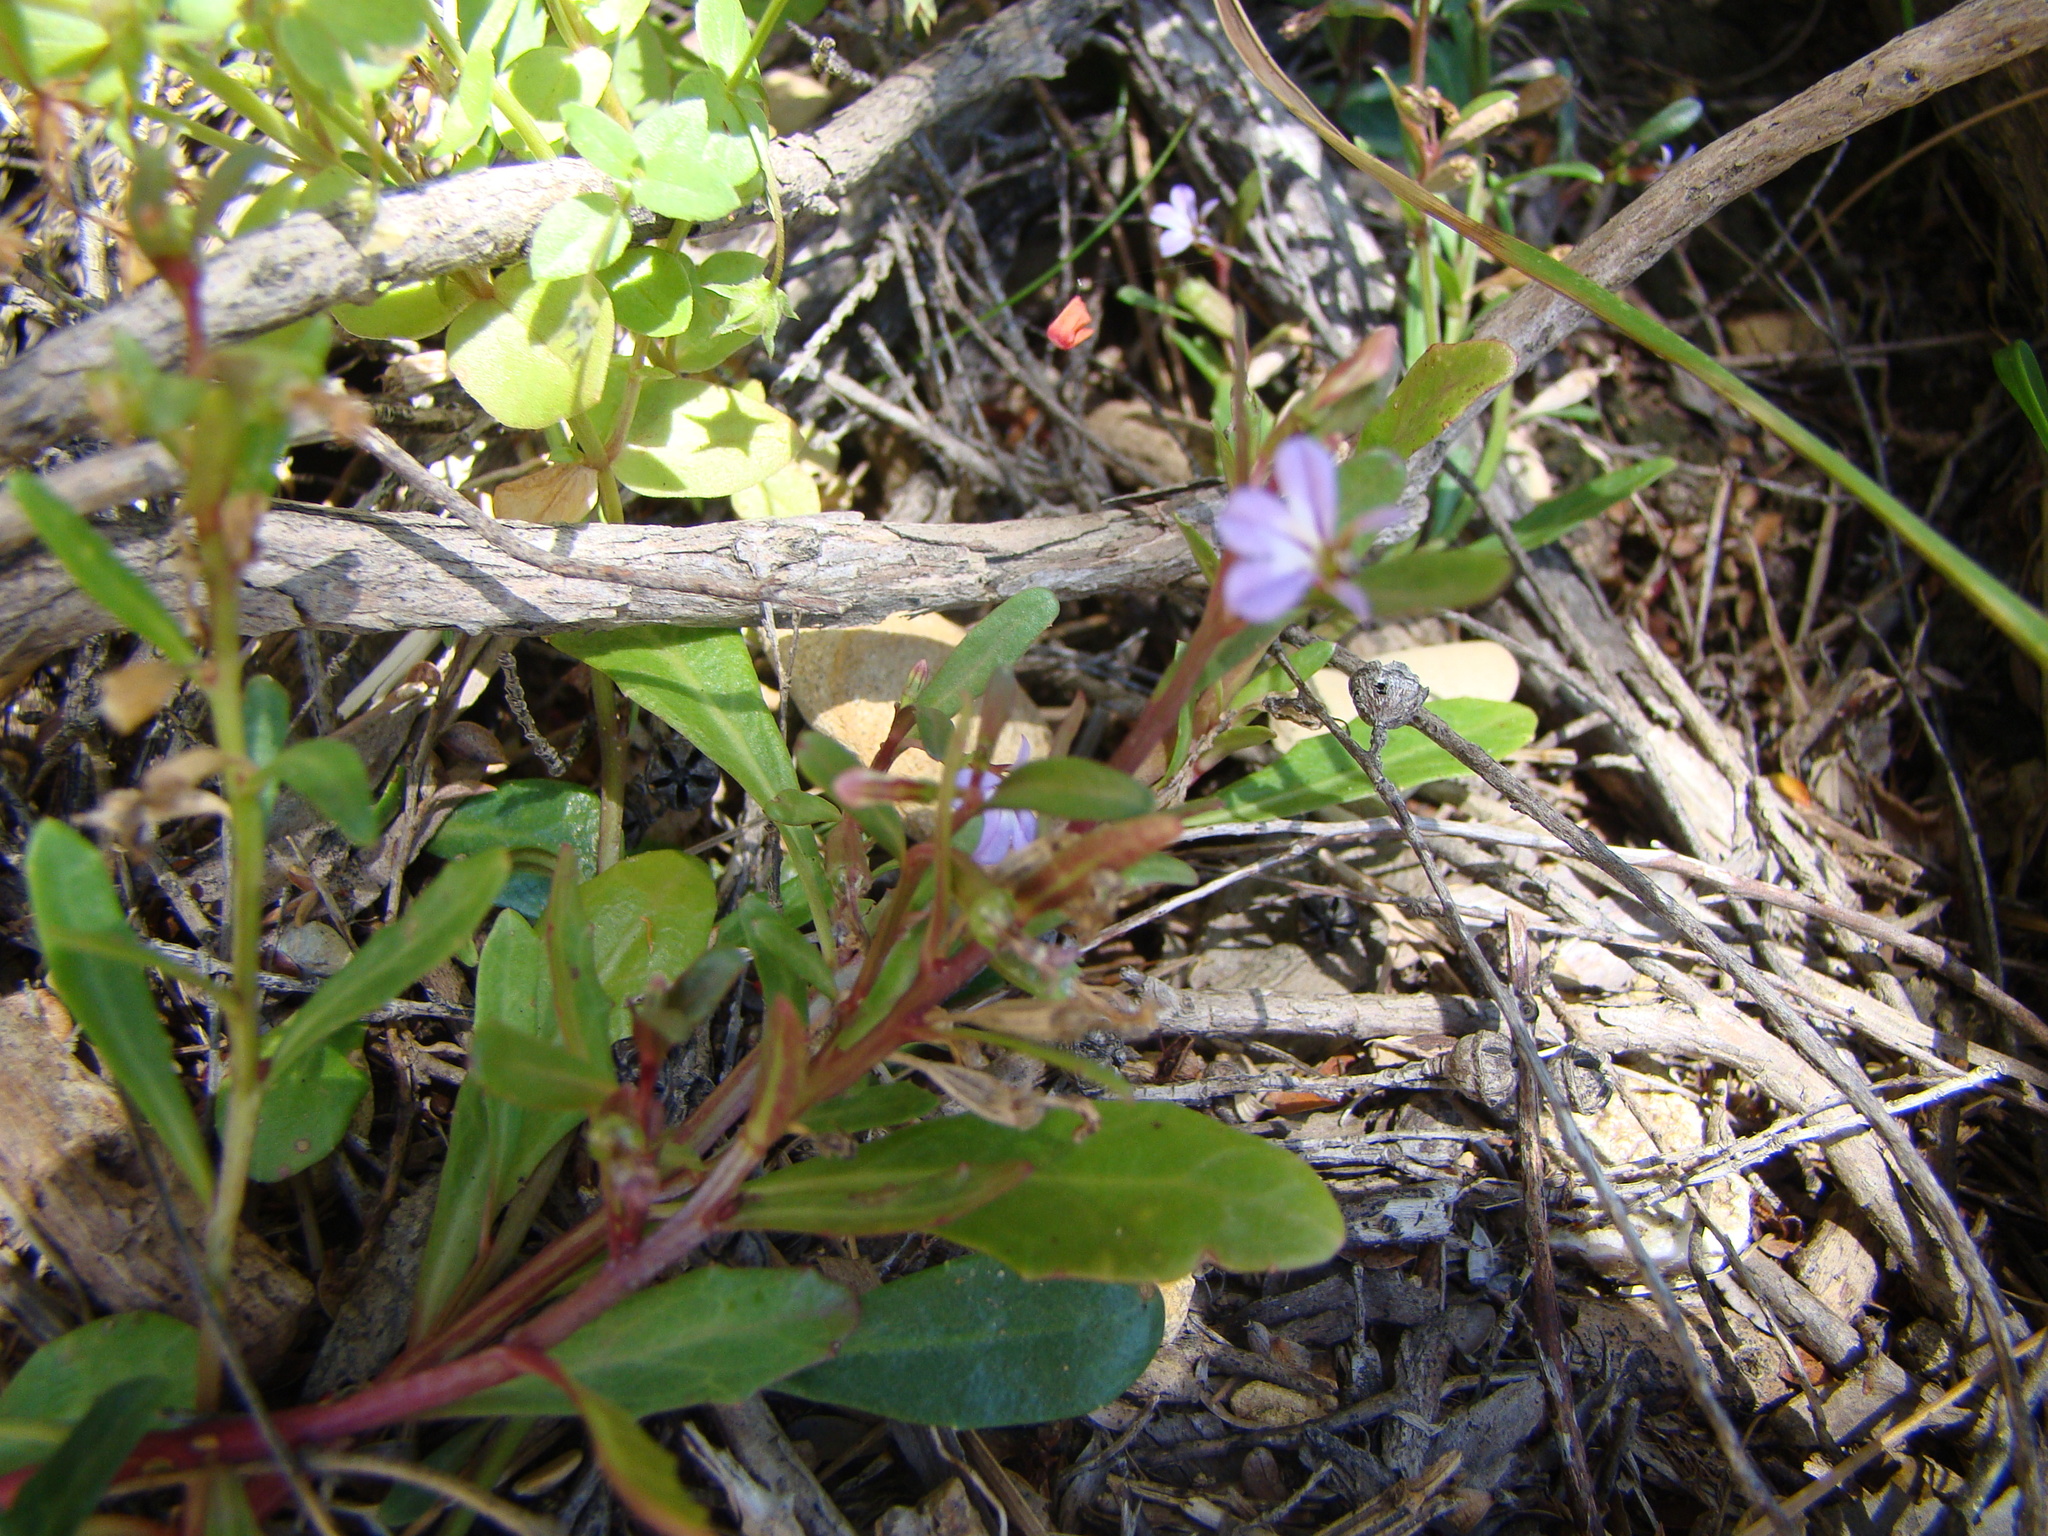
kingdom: Plantae
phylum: Tracheophyta
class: Magnoliopsida
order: Asterales
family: Campanulaceae
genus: Lobelia
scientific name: Lobelia anceps
